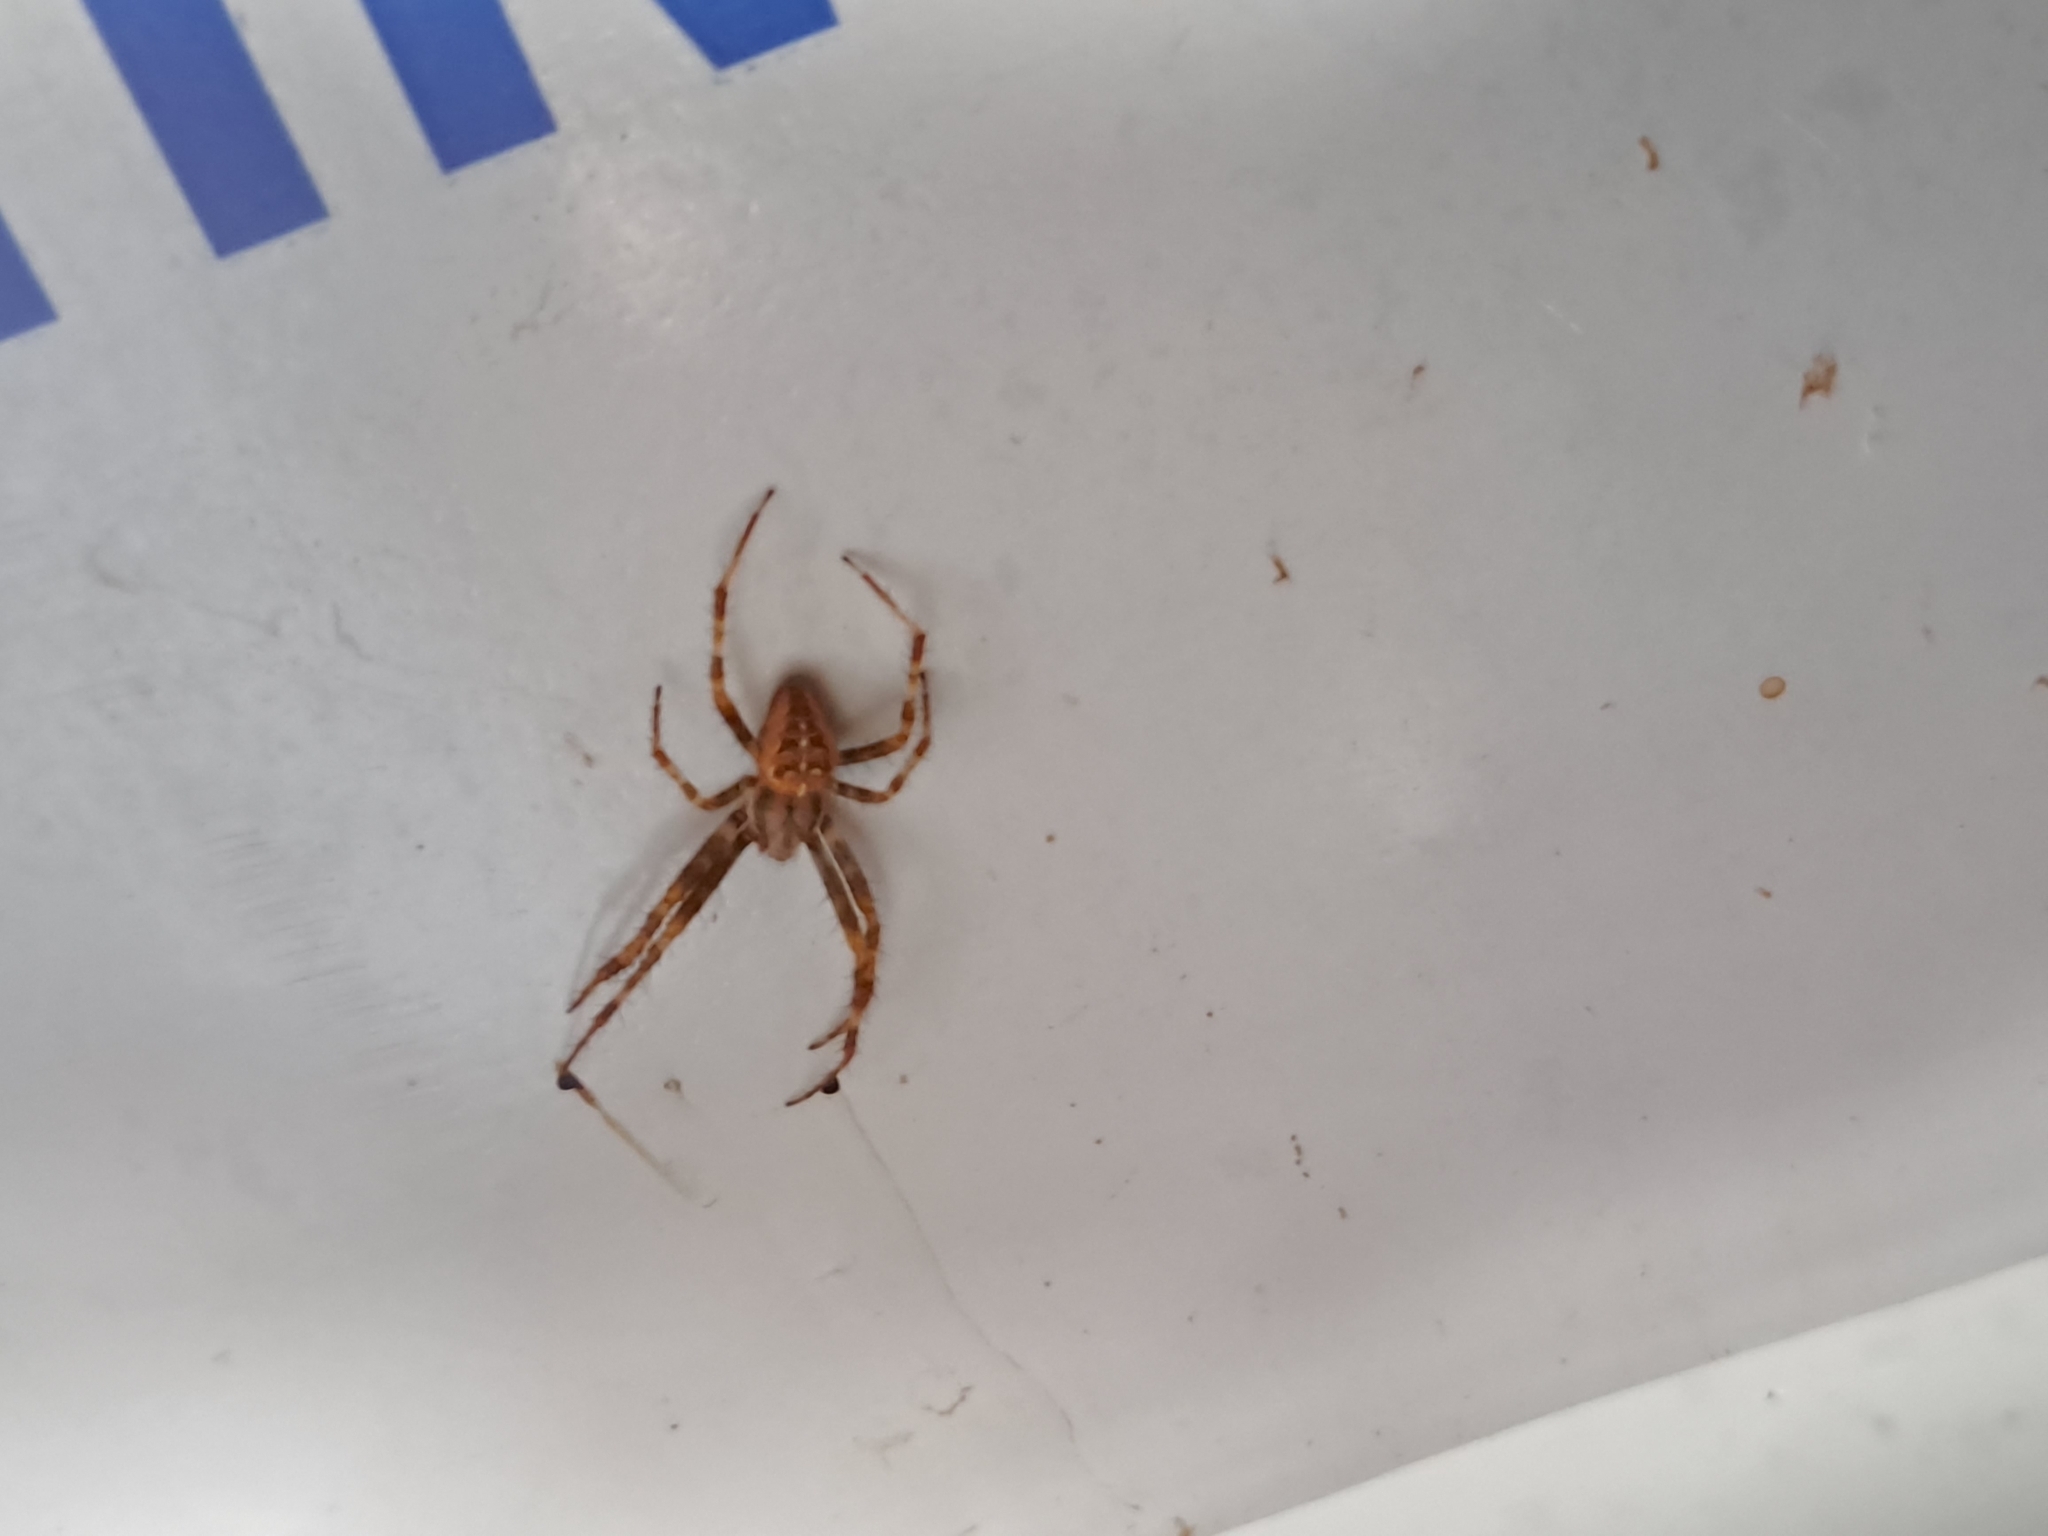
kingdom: Animalia
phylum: Arthropoda
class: Arachnida
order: Araneae
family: Araneidae
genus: Araneus
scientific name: Araneus diadematus
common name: Cross orbweaver
